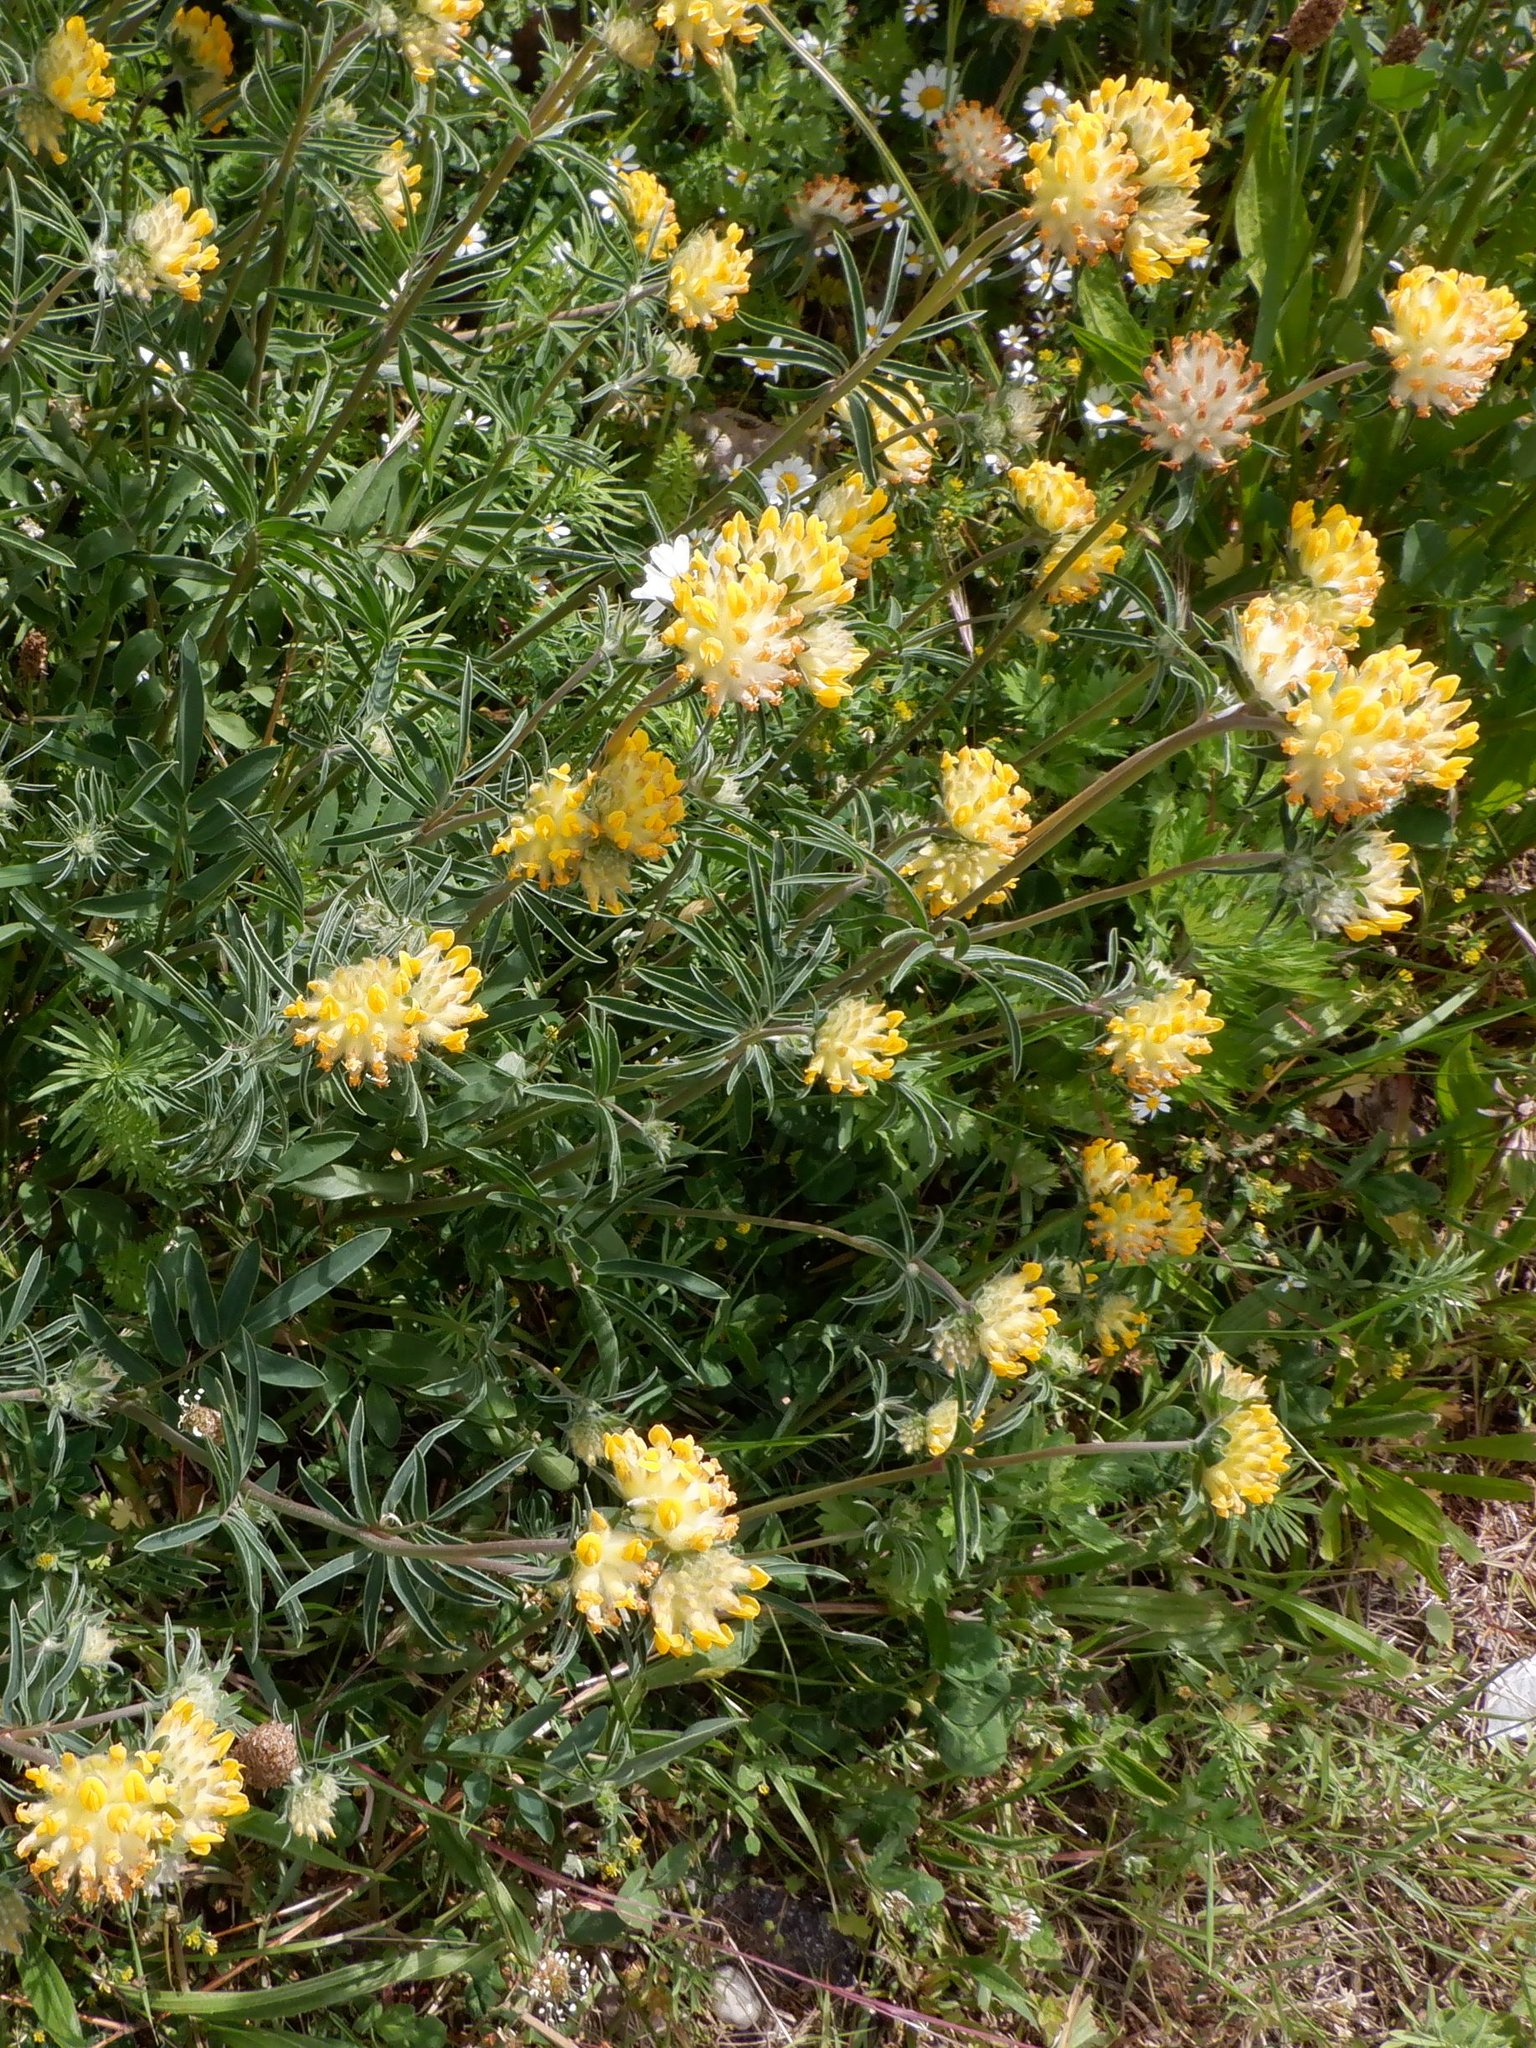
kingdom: Plantae
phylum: Tracheophyta
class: Magnoliopsida
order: Fabales
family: Fabaceae
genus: Anthyllis
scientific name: Anthyllis vulneraria
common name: Kidney vetch
